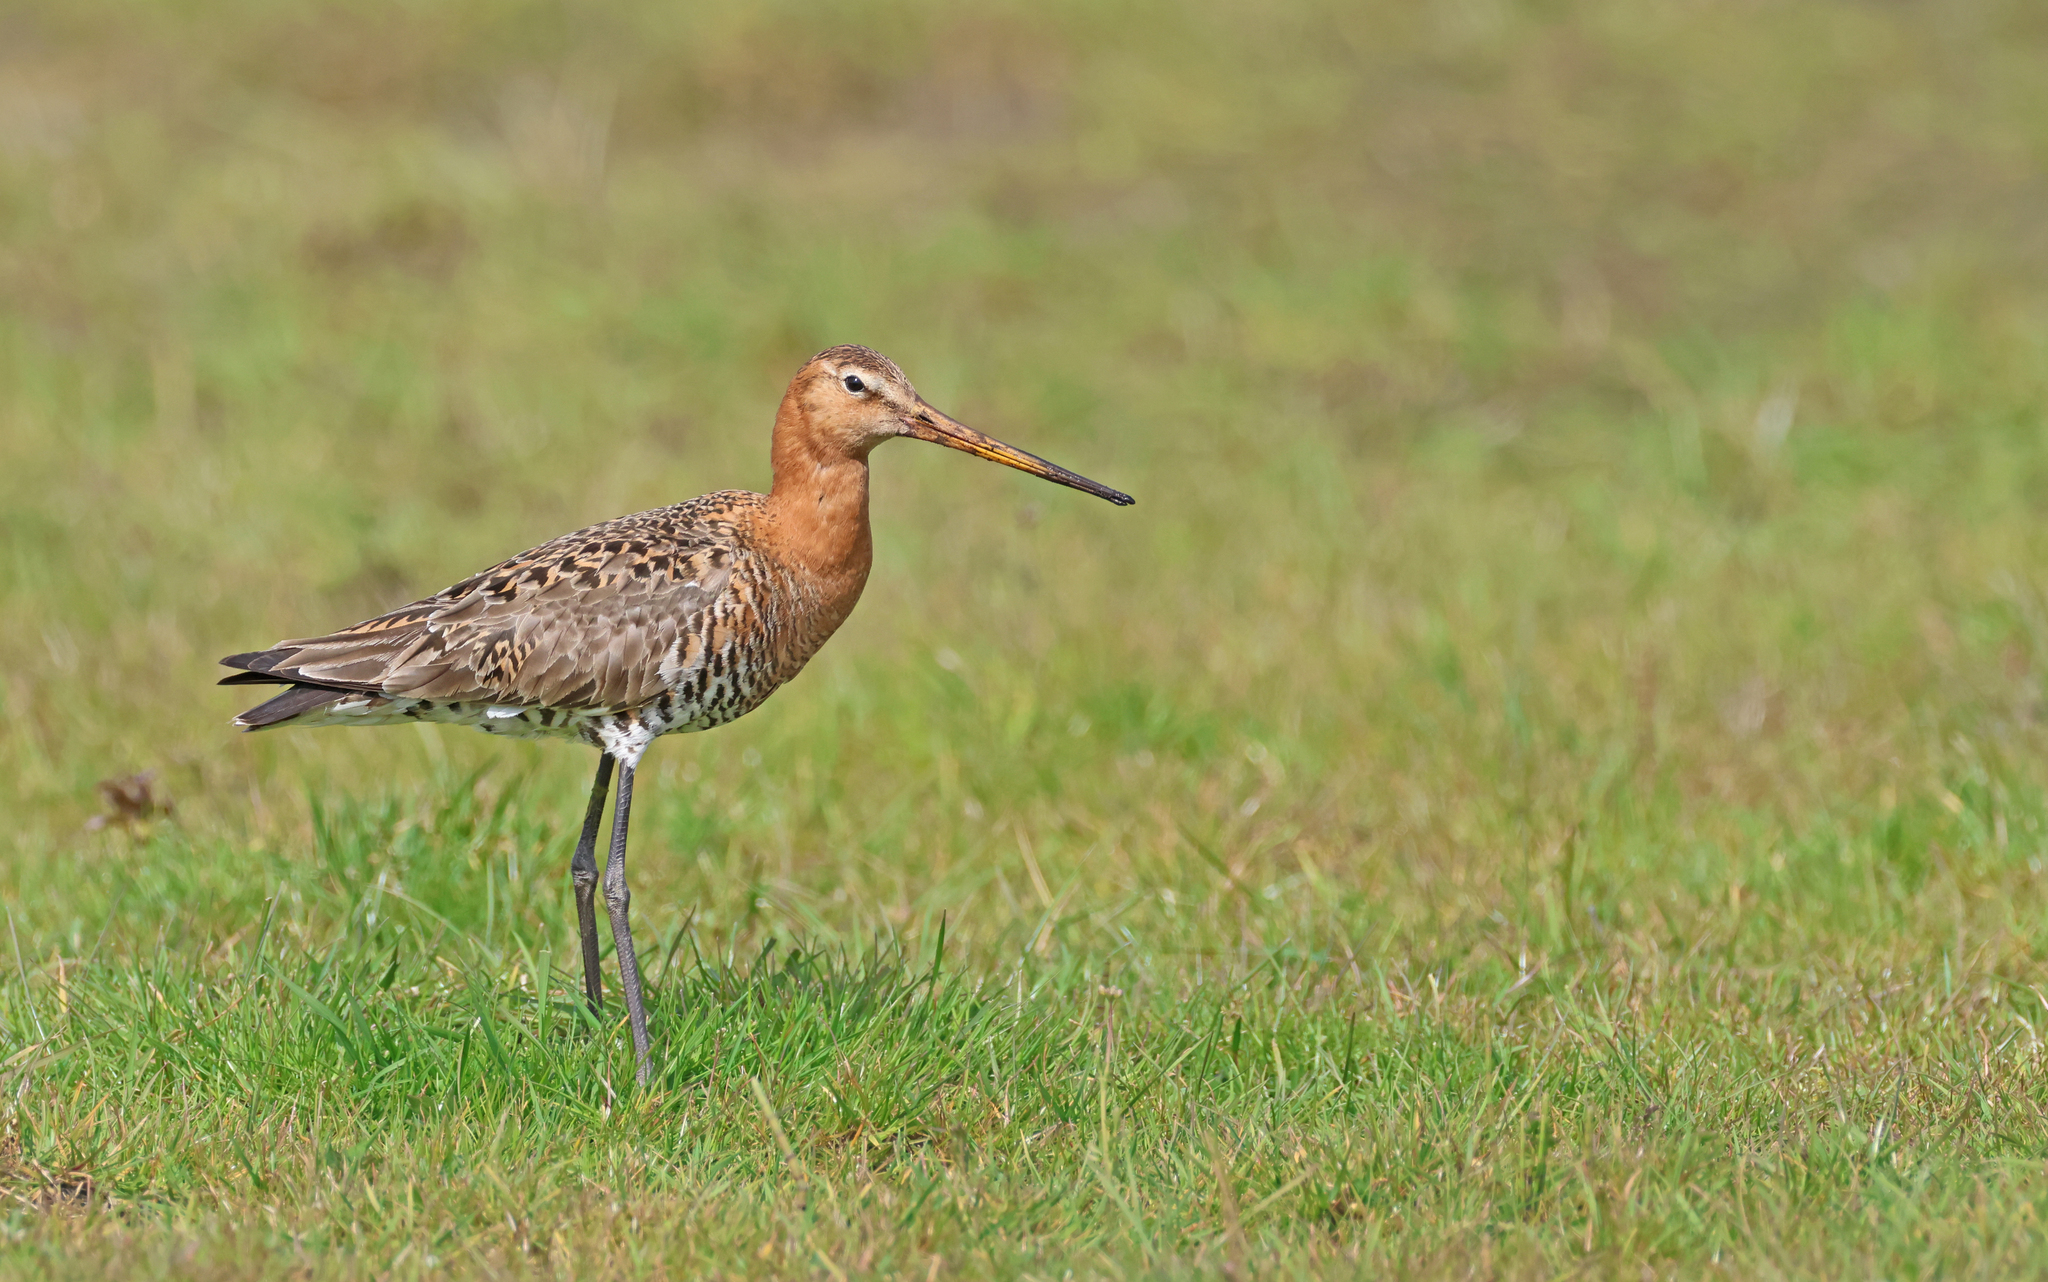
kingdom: Animalia
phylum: Chordata
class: Aves
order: Charadriiformes
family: Scolopacidae
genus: Limosa
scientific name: Limosa limosa
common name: Black-tailed godwit
